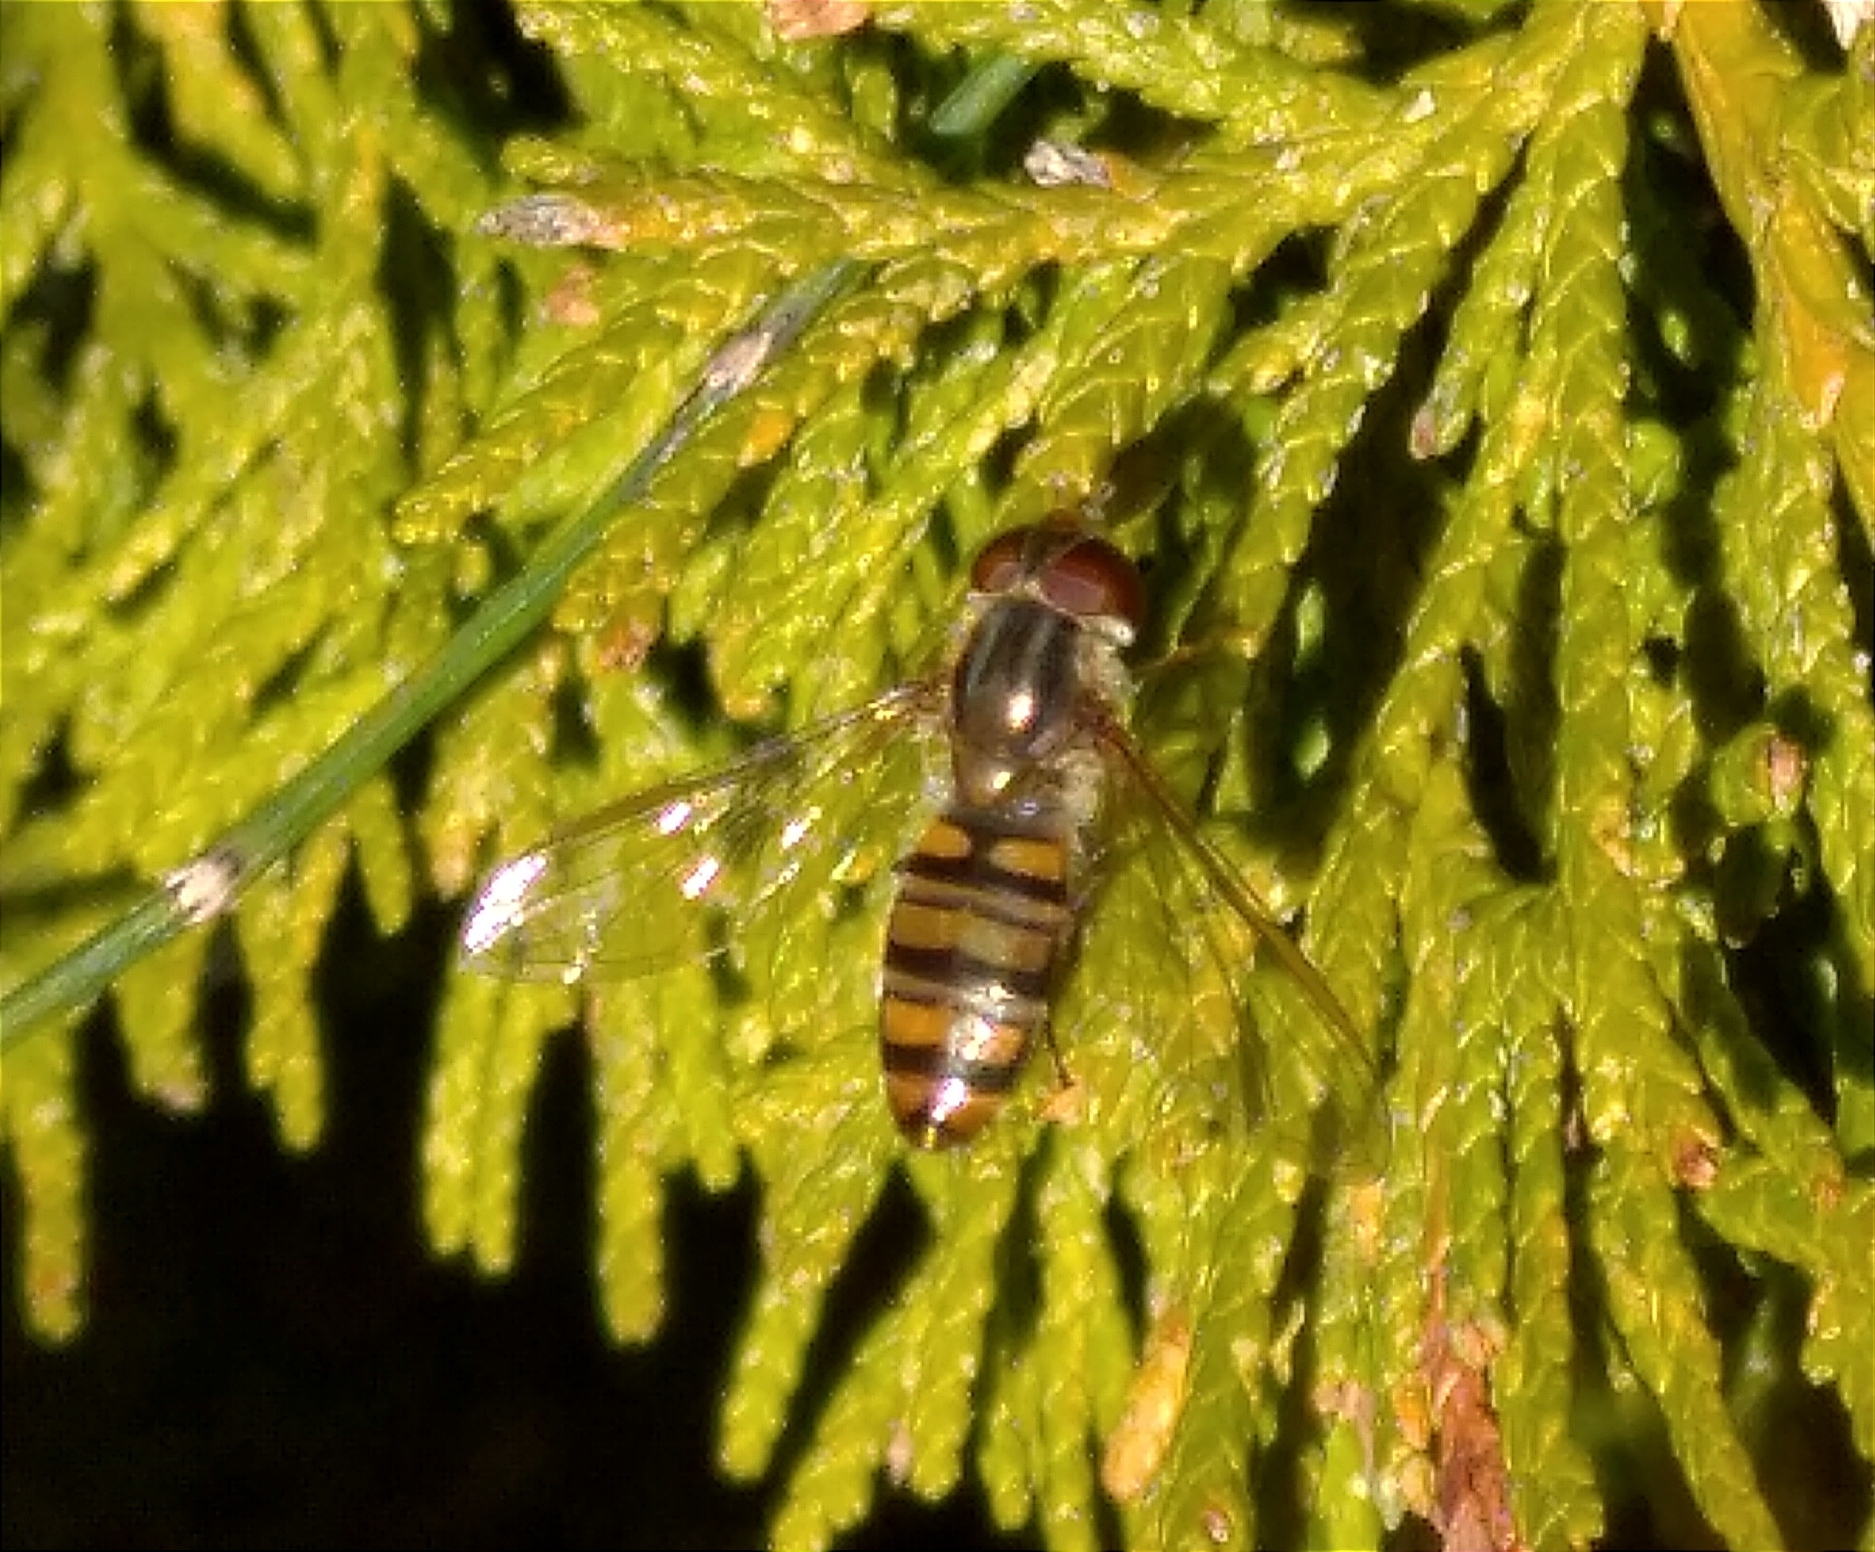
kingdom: Animalia
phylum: Arthropoda
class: Insecta
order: Diptera
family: Syrphidae
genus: Episyrphus
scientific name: Episyrphus balteatus
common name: Marmalade hoverfly
